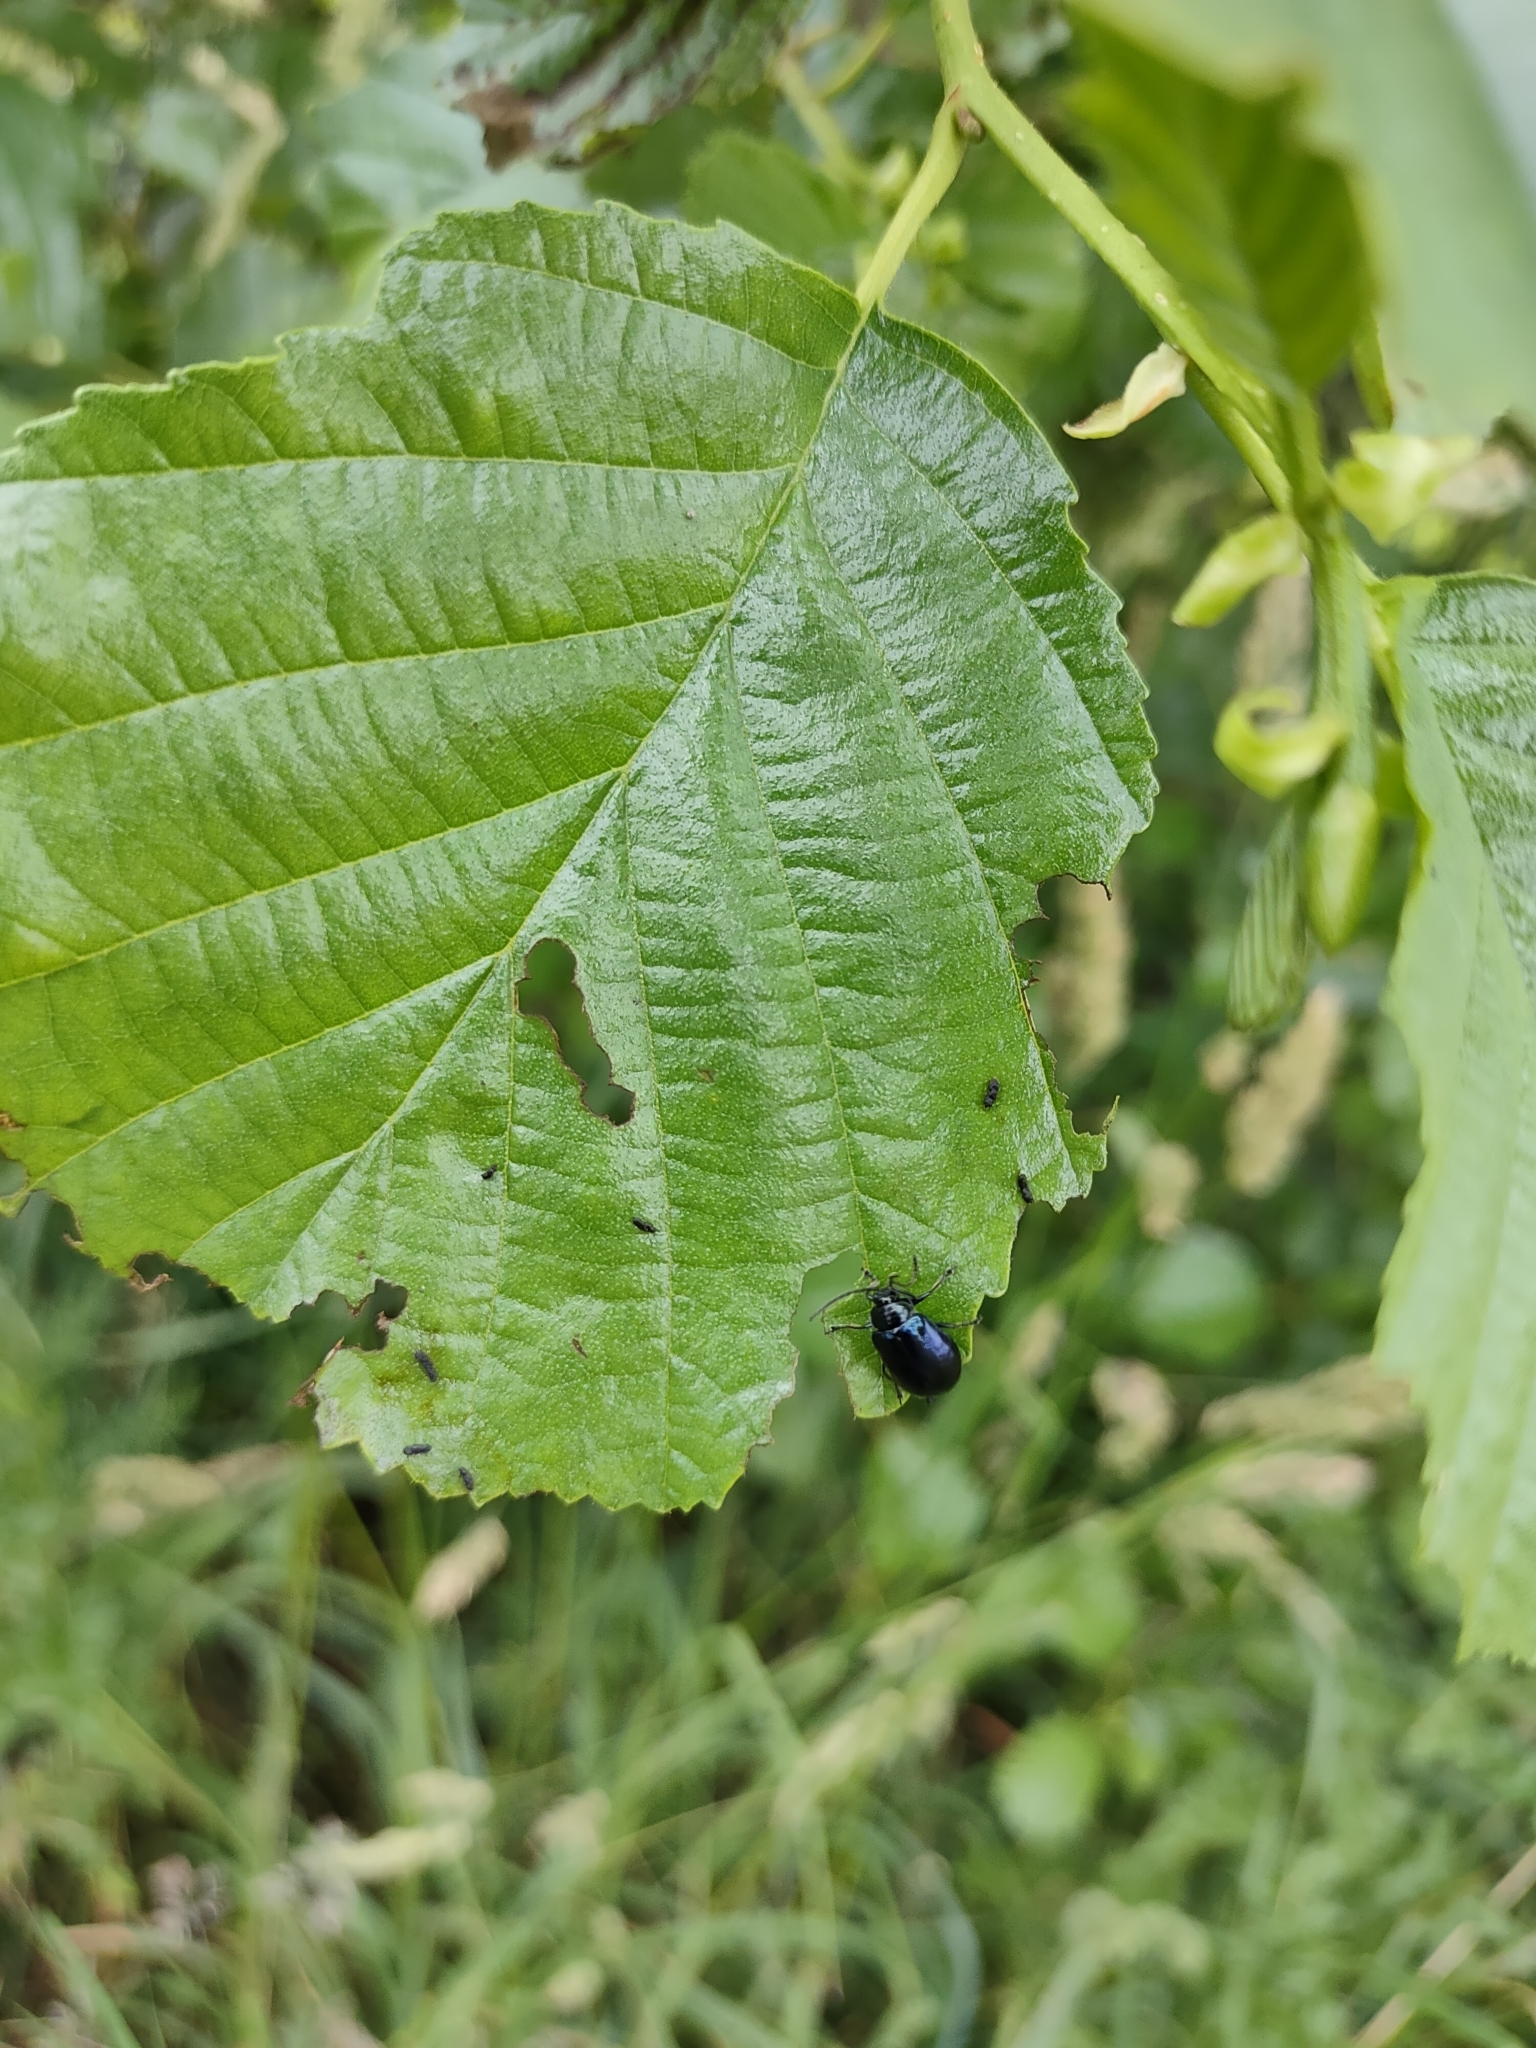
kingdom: Animalia
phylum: Arthropoda
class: Insecta
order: Coleoptera
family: Chrysomelidae
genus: Agelastica
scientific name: Agelastica alni
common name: Alder leaf beetle
